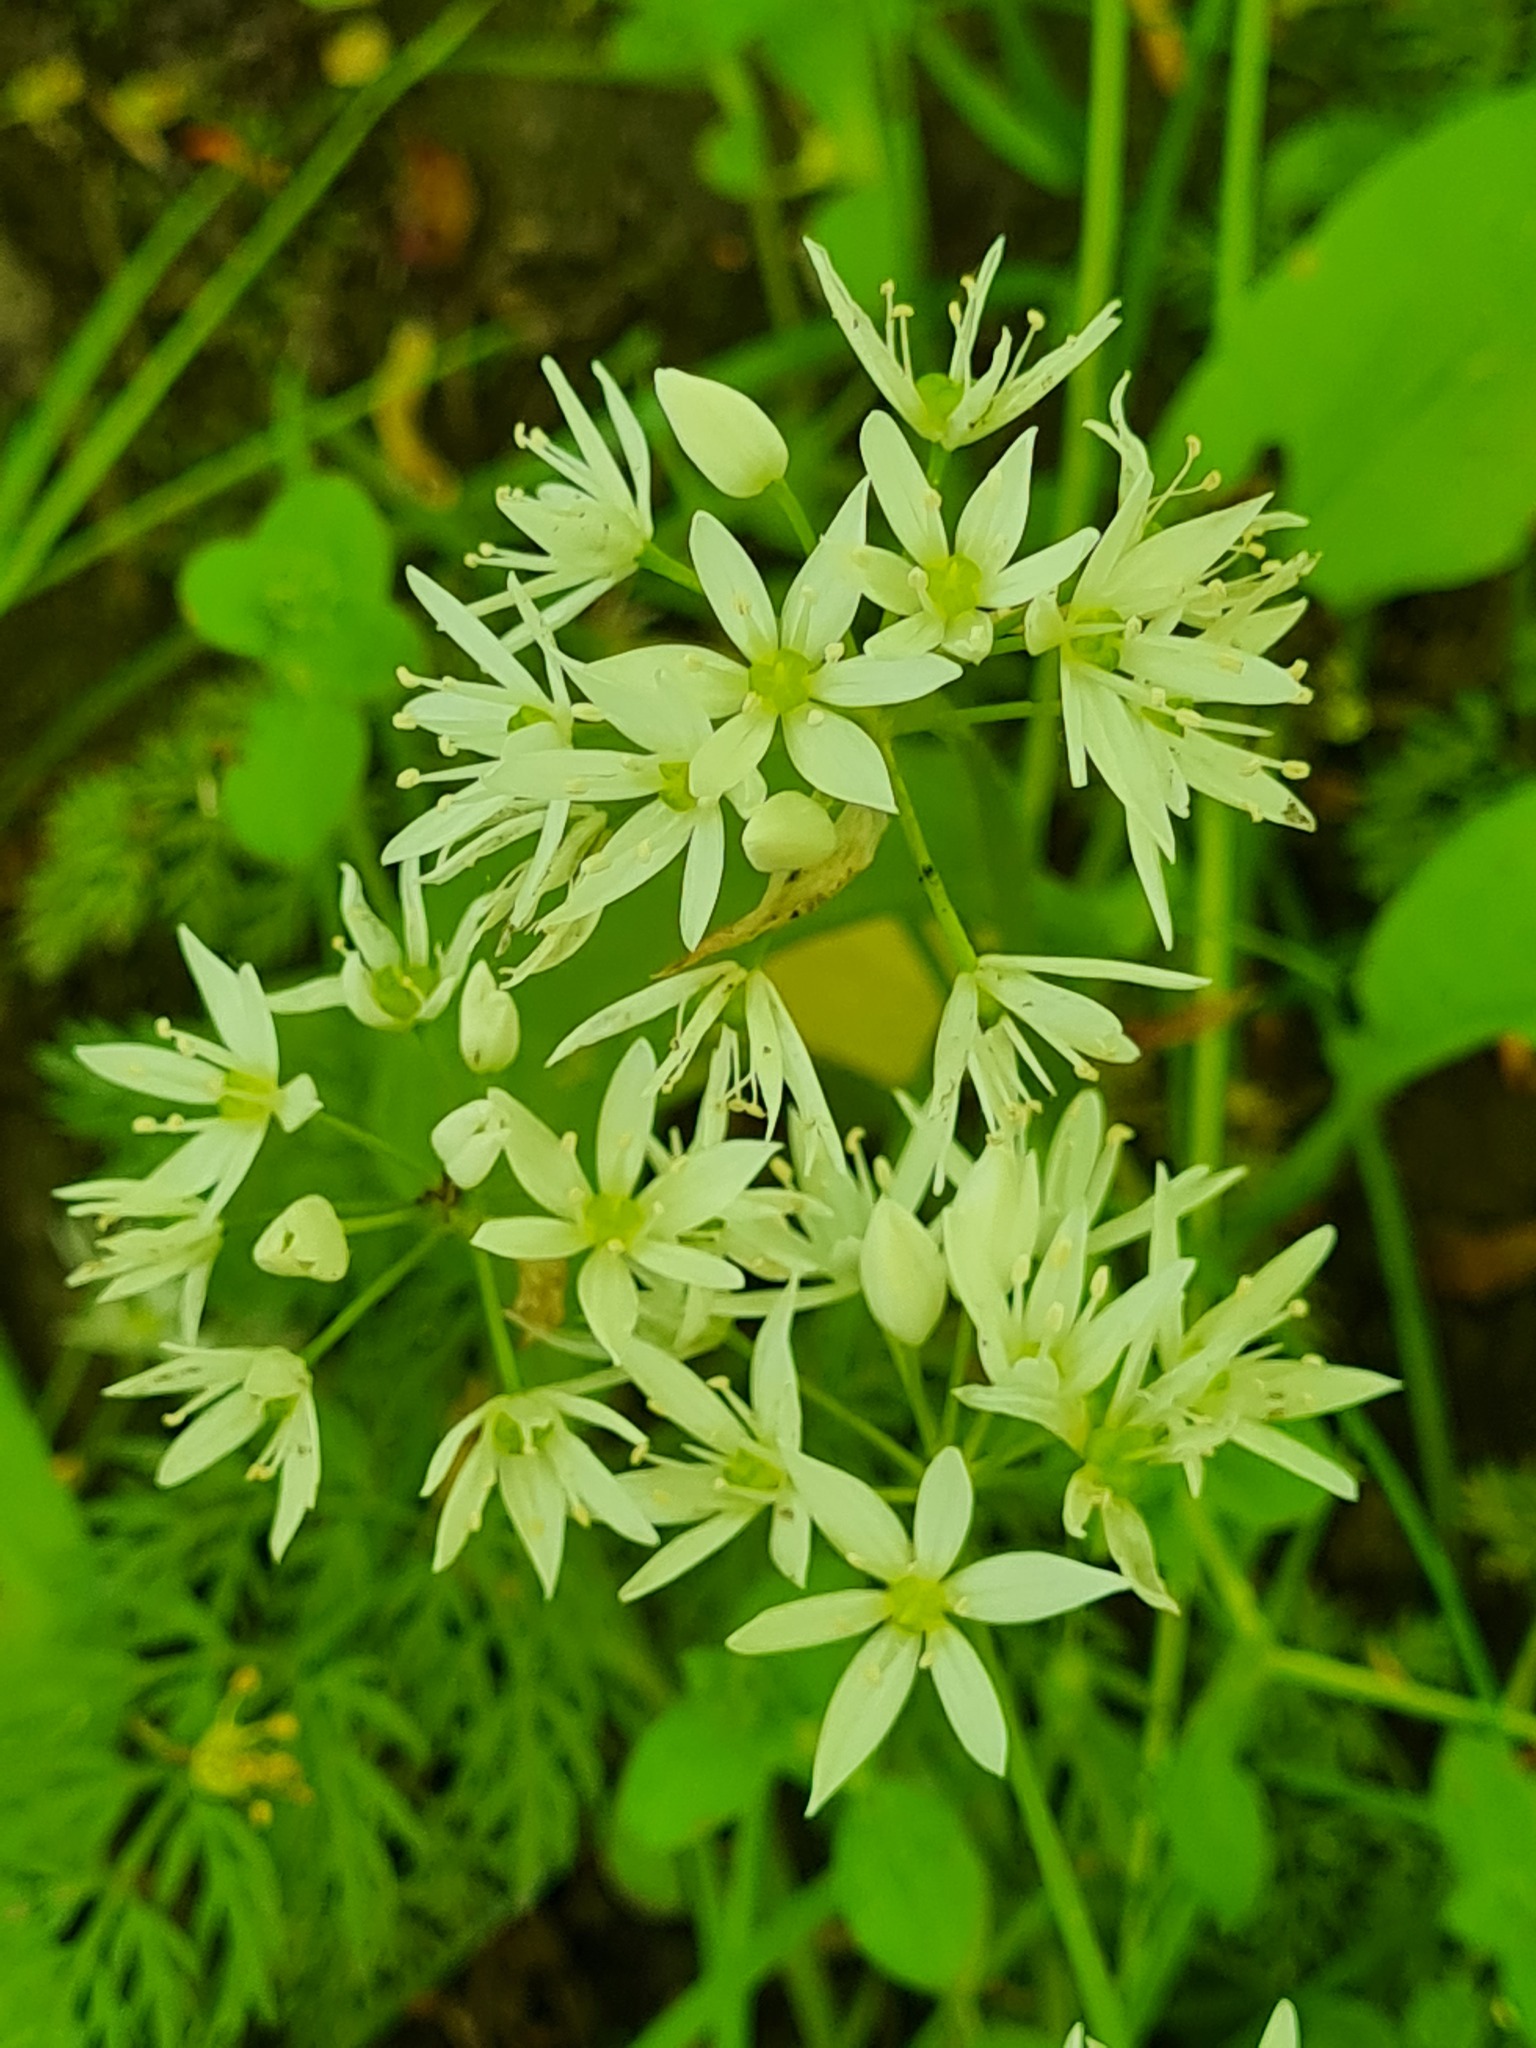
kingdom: Plantae
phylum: Tracheophyta
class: Liliopsida
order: Asparagales
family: Amaryllidaceae
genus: Allium
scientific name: Allium ursinum
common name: Ramsons
